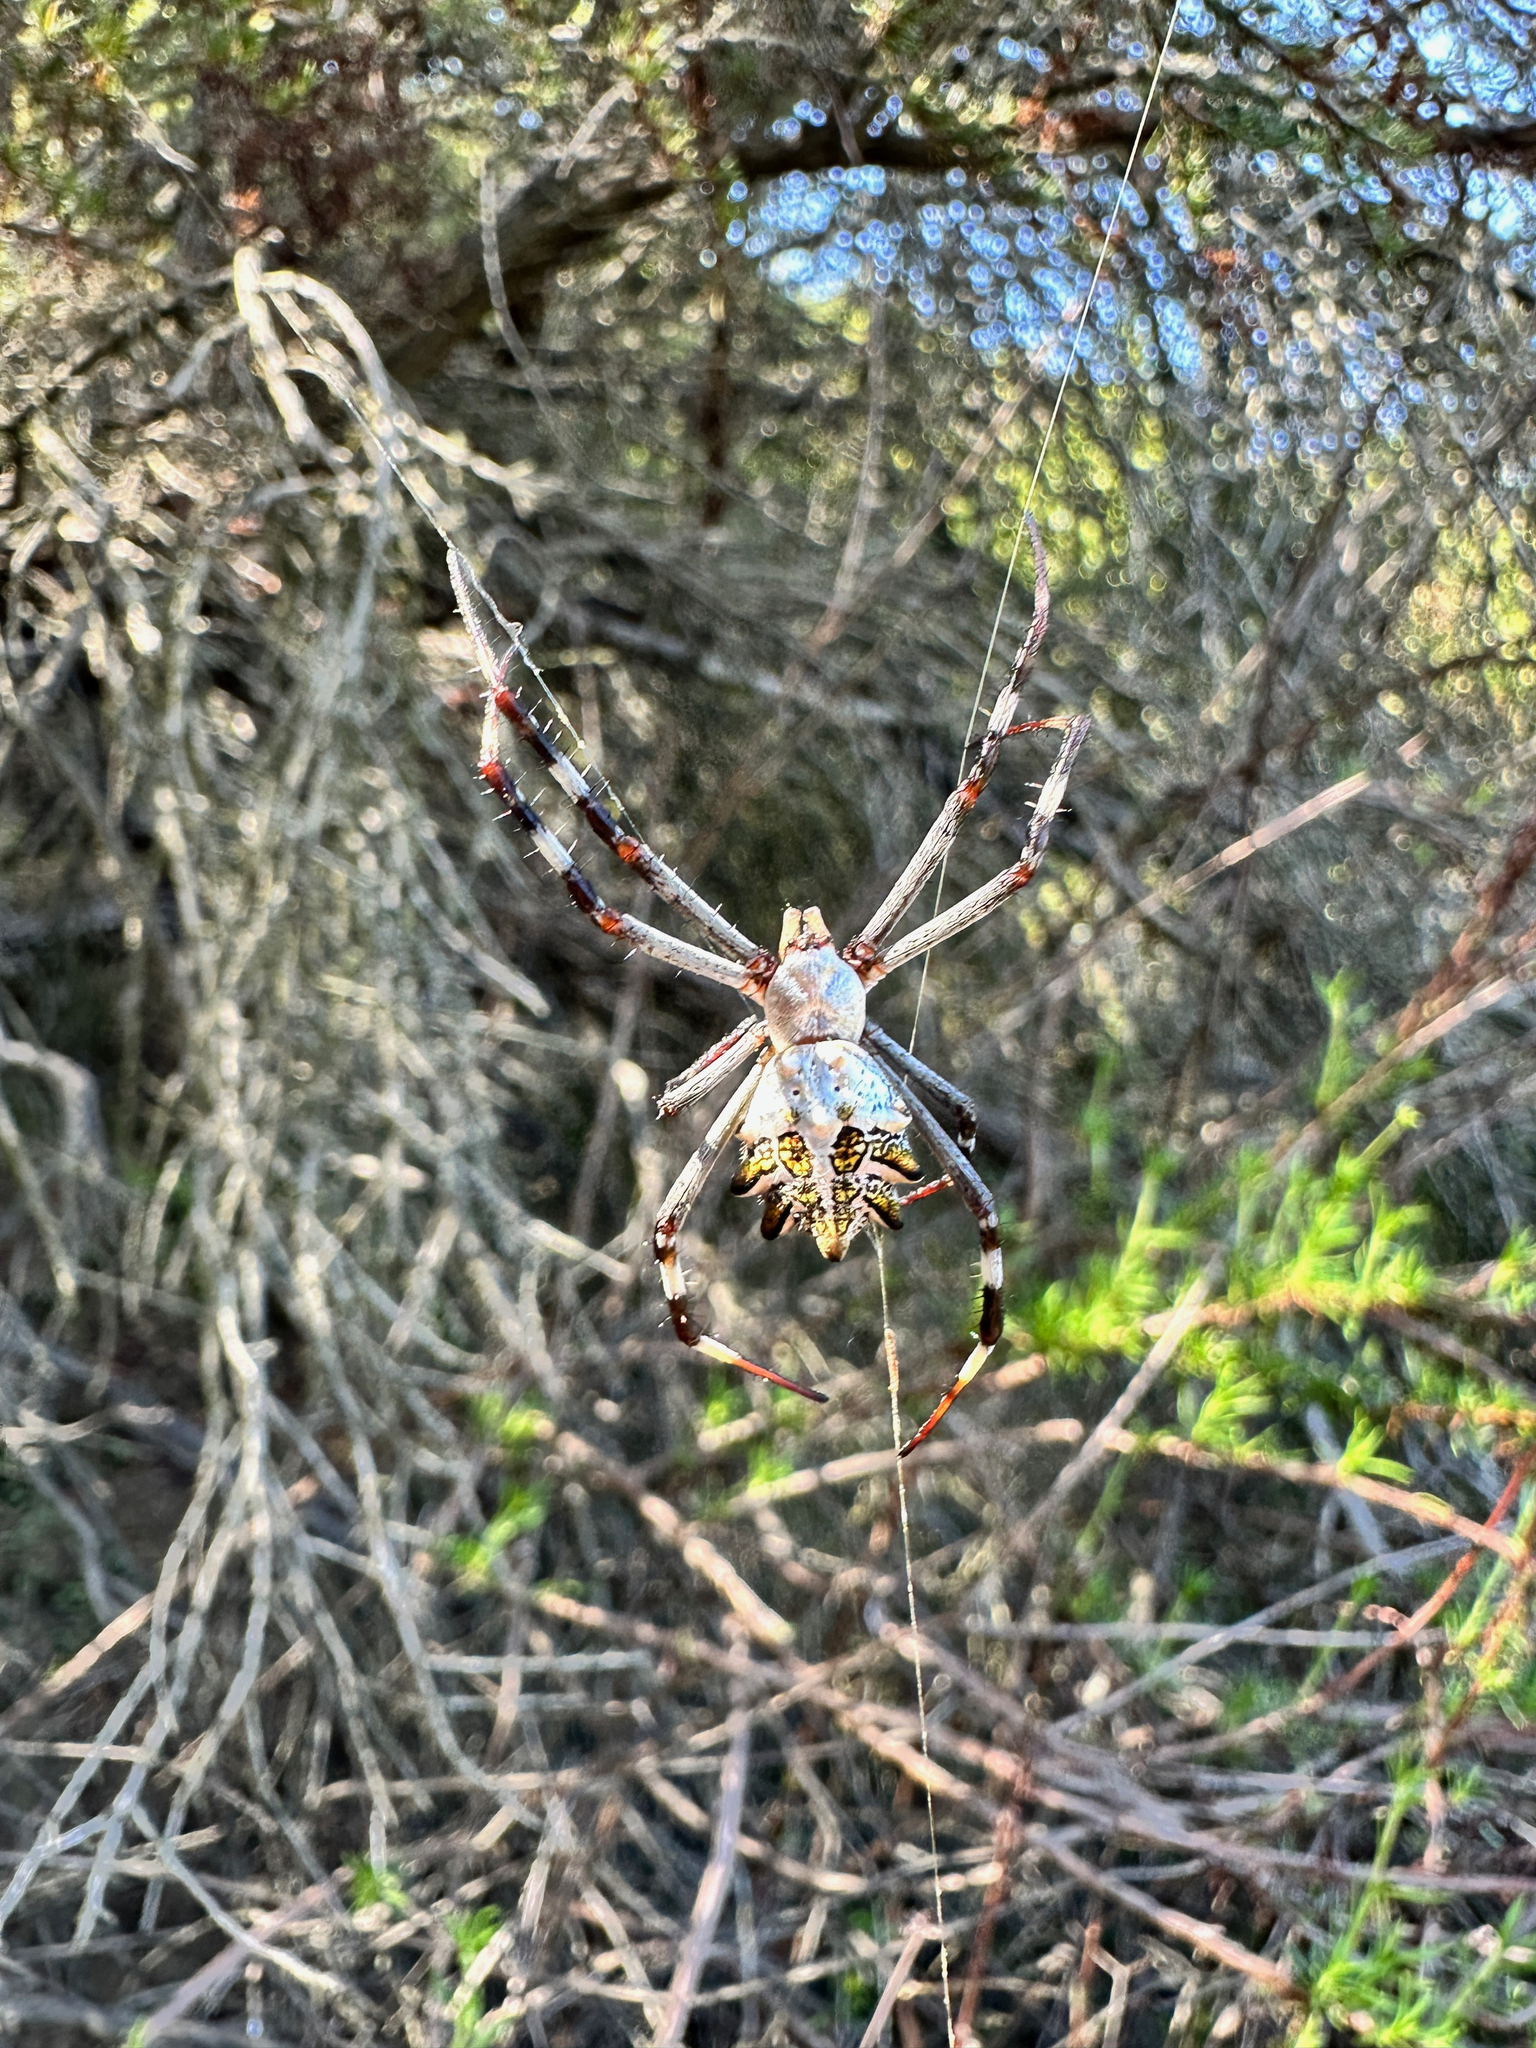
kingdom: Animalia
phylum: Arthropoda
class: Arachnida
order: Araneae
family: Araneidae
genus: Argiope
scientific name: Argiope argentata
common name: Orb weavers
